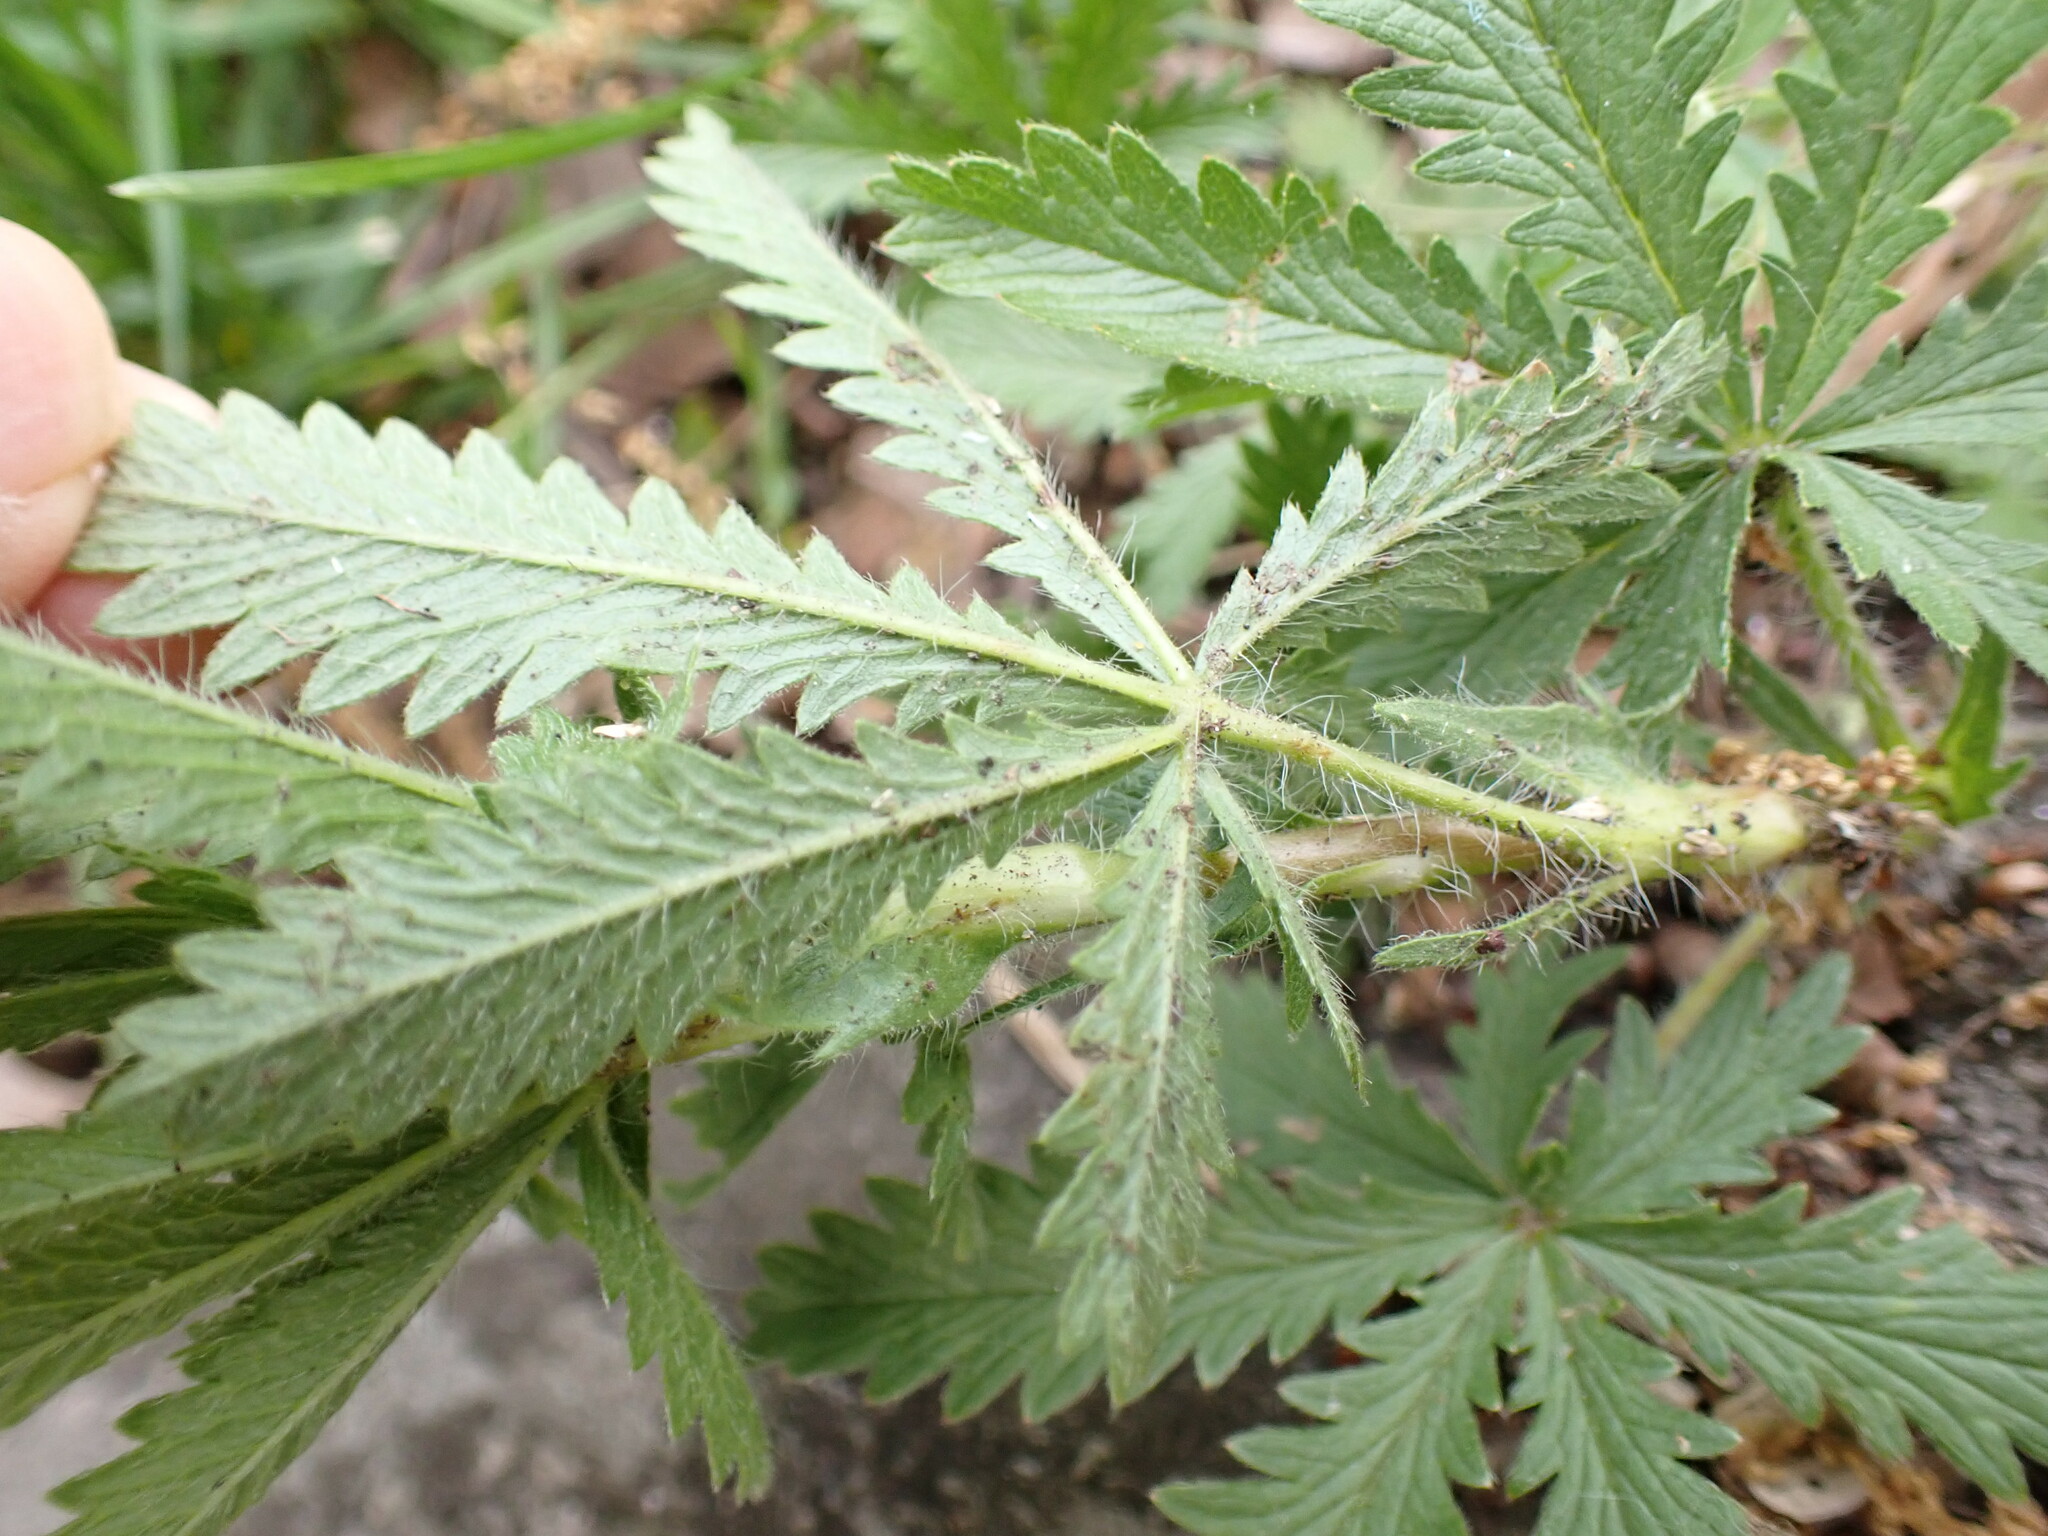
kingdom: Plantae
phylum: Tracheophyta
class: Magnoliopsida
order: Rosales
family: Rosaceae
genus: Potentilla
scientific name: Potentilla recta
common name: Sulphur cinquefoil
